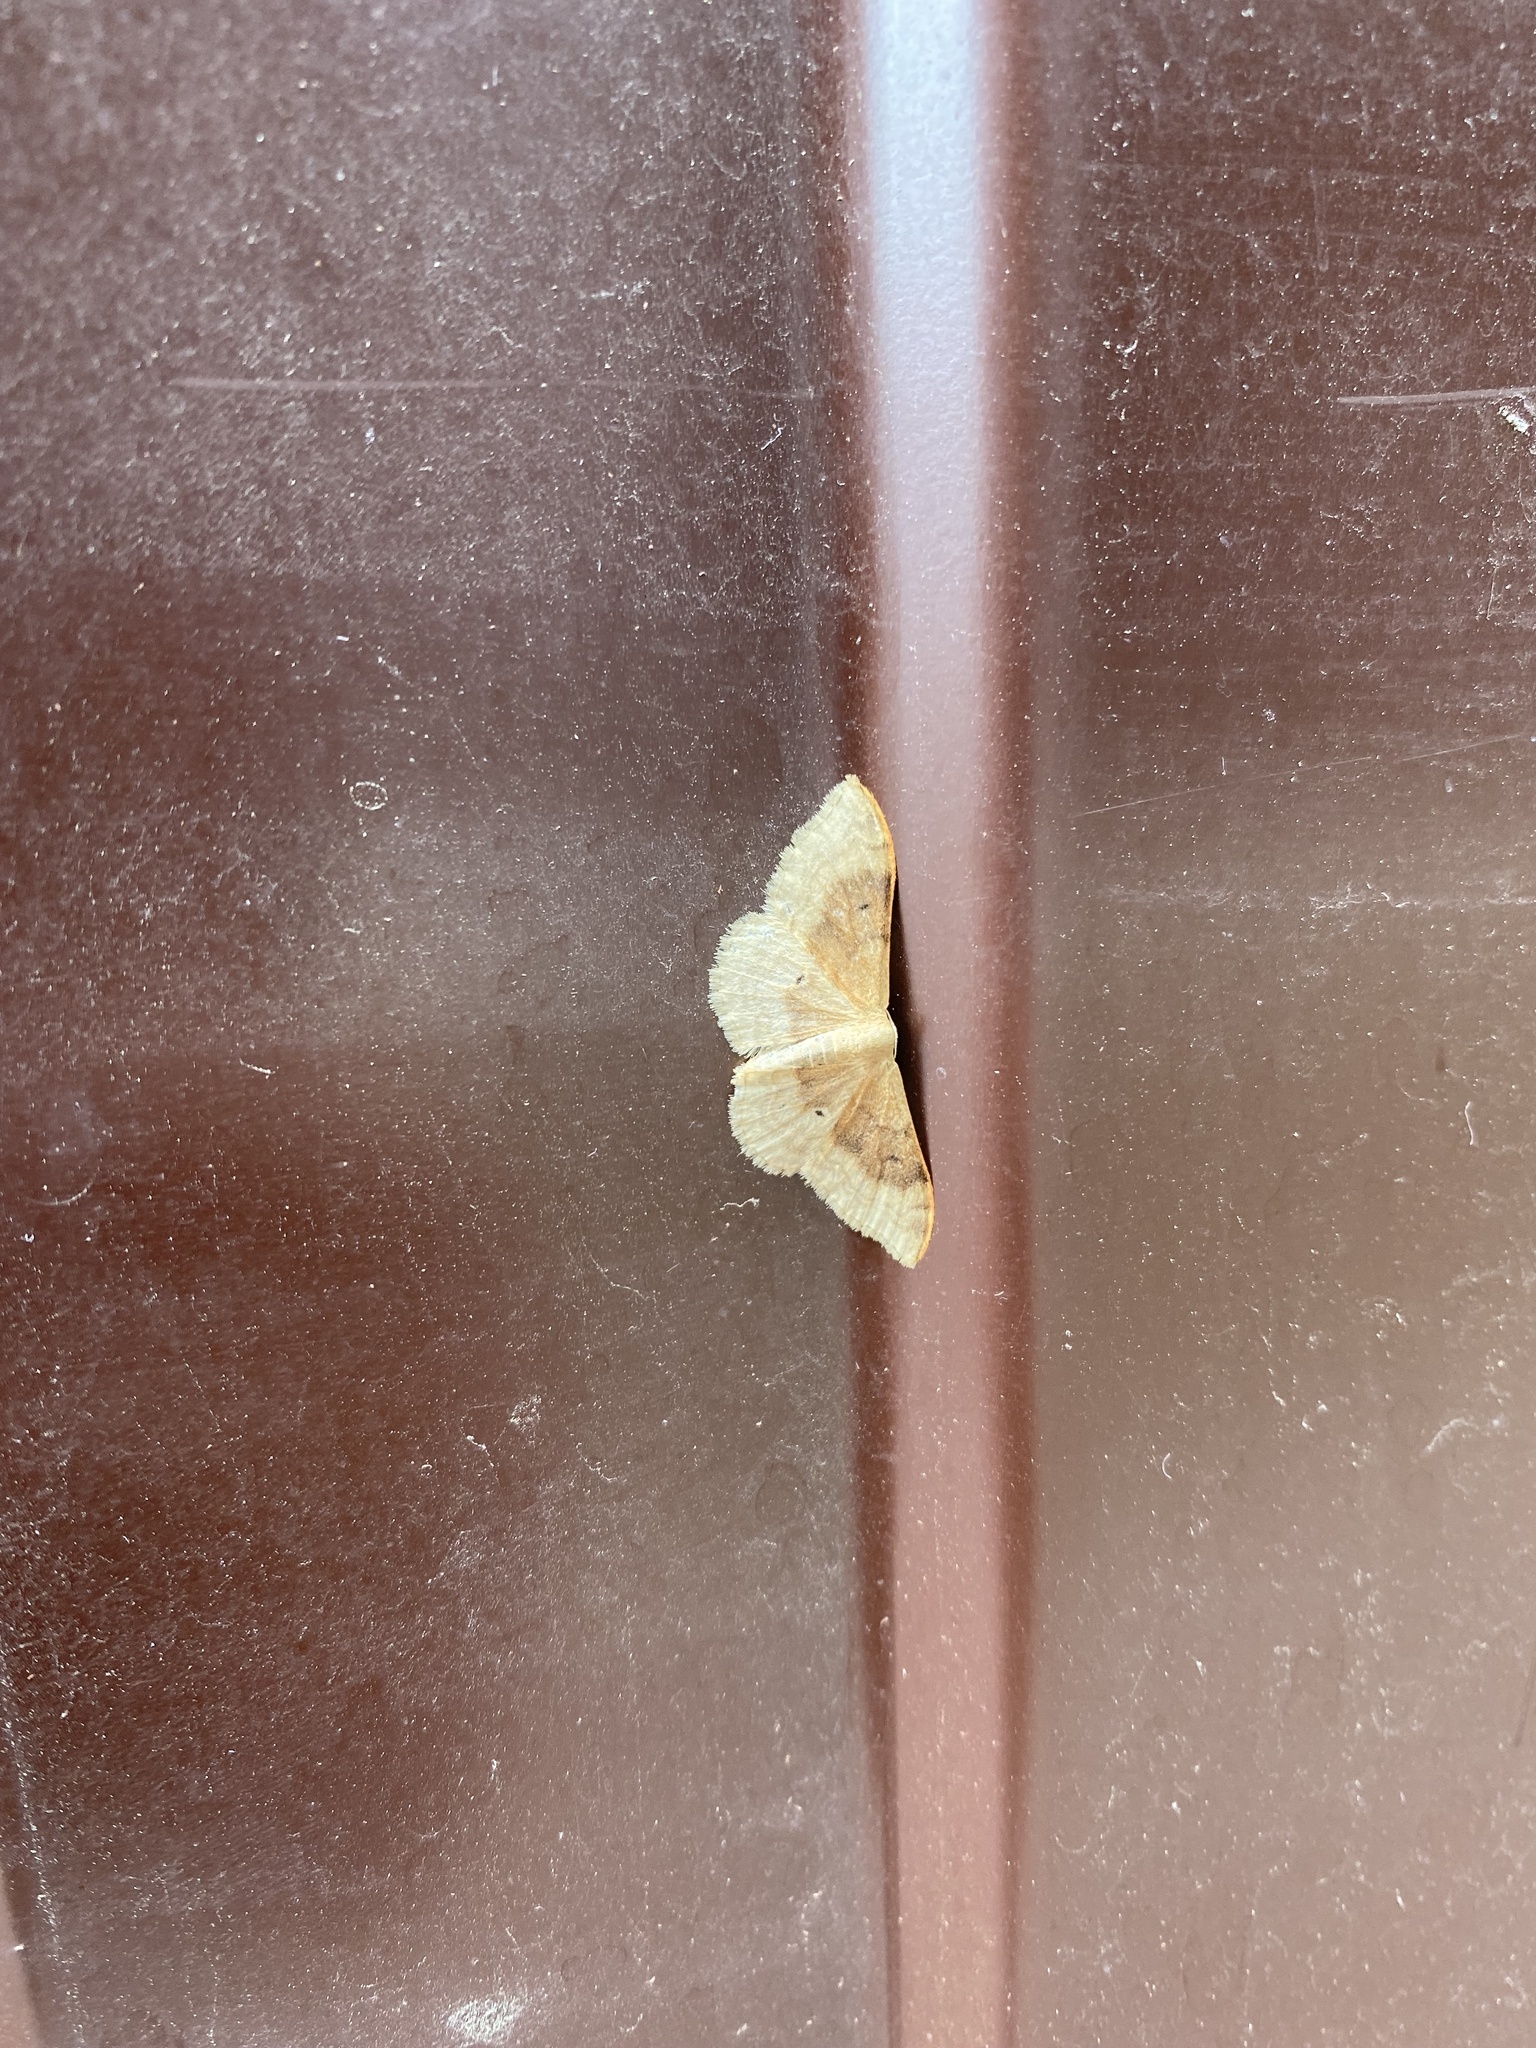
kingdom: Animalia
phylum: Arthropoda
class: Insecta
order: Lepidoptera
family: Geometridae
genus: Idaea
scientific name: Idaea degeneraria
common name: Portland ribbon wave
